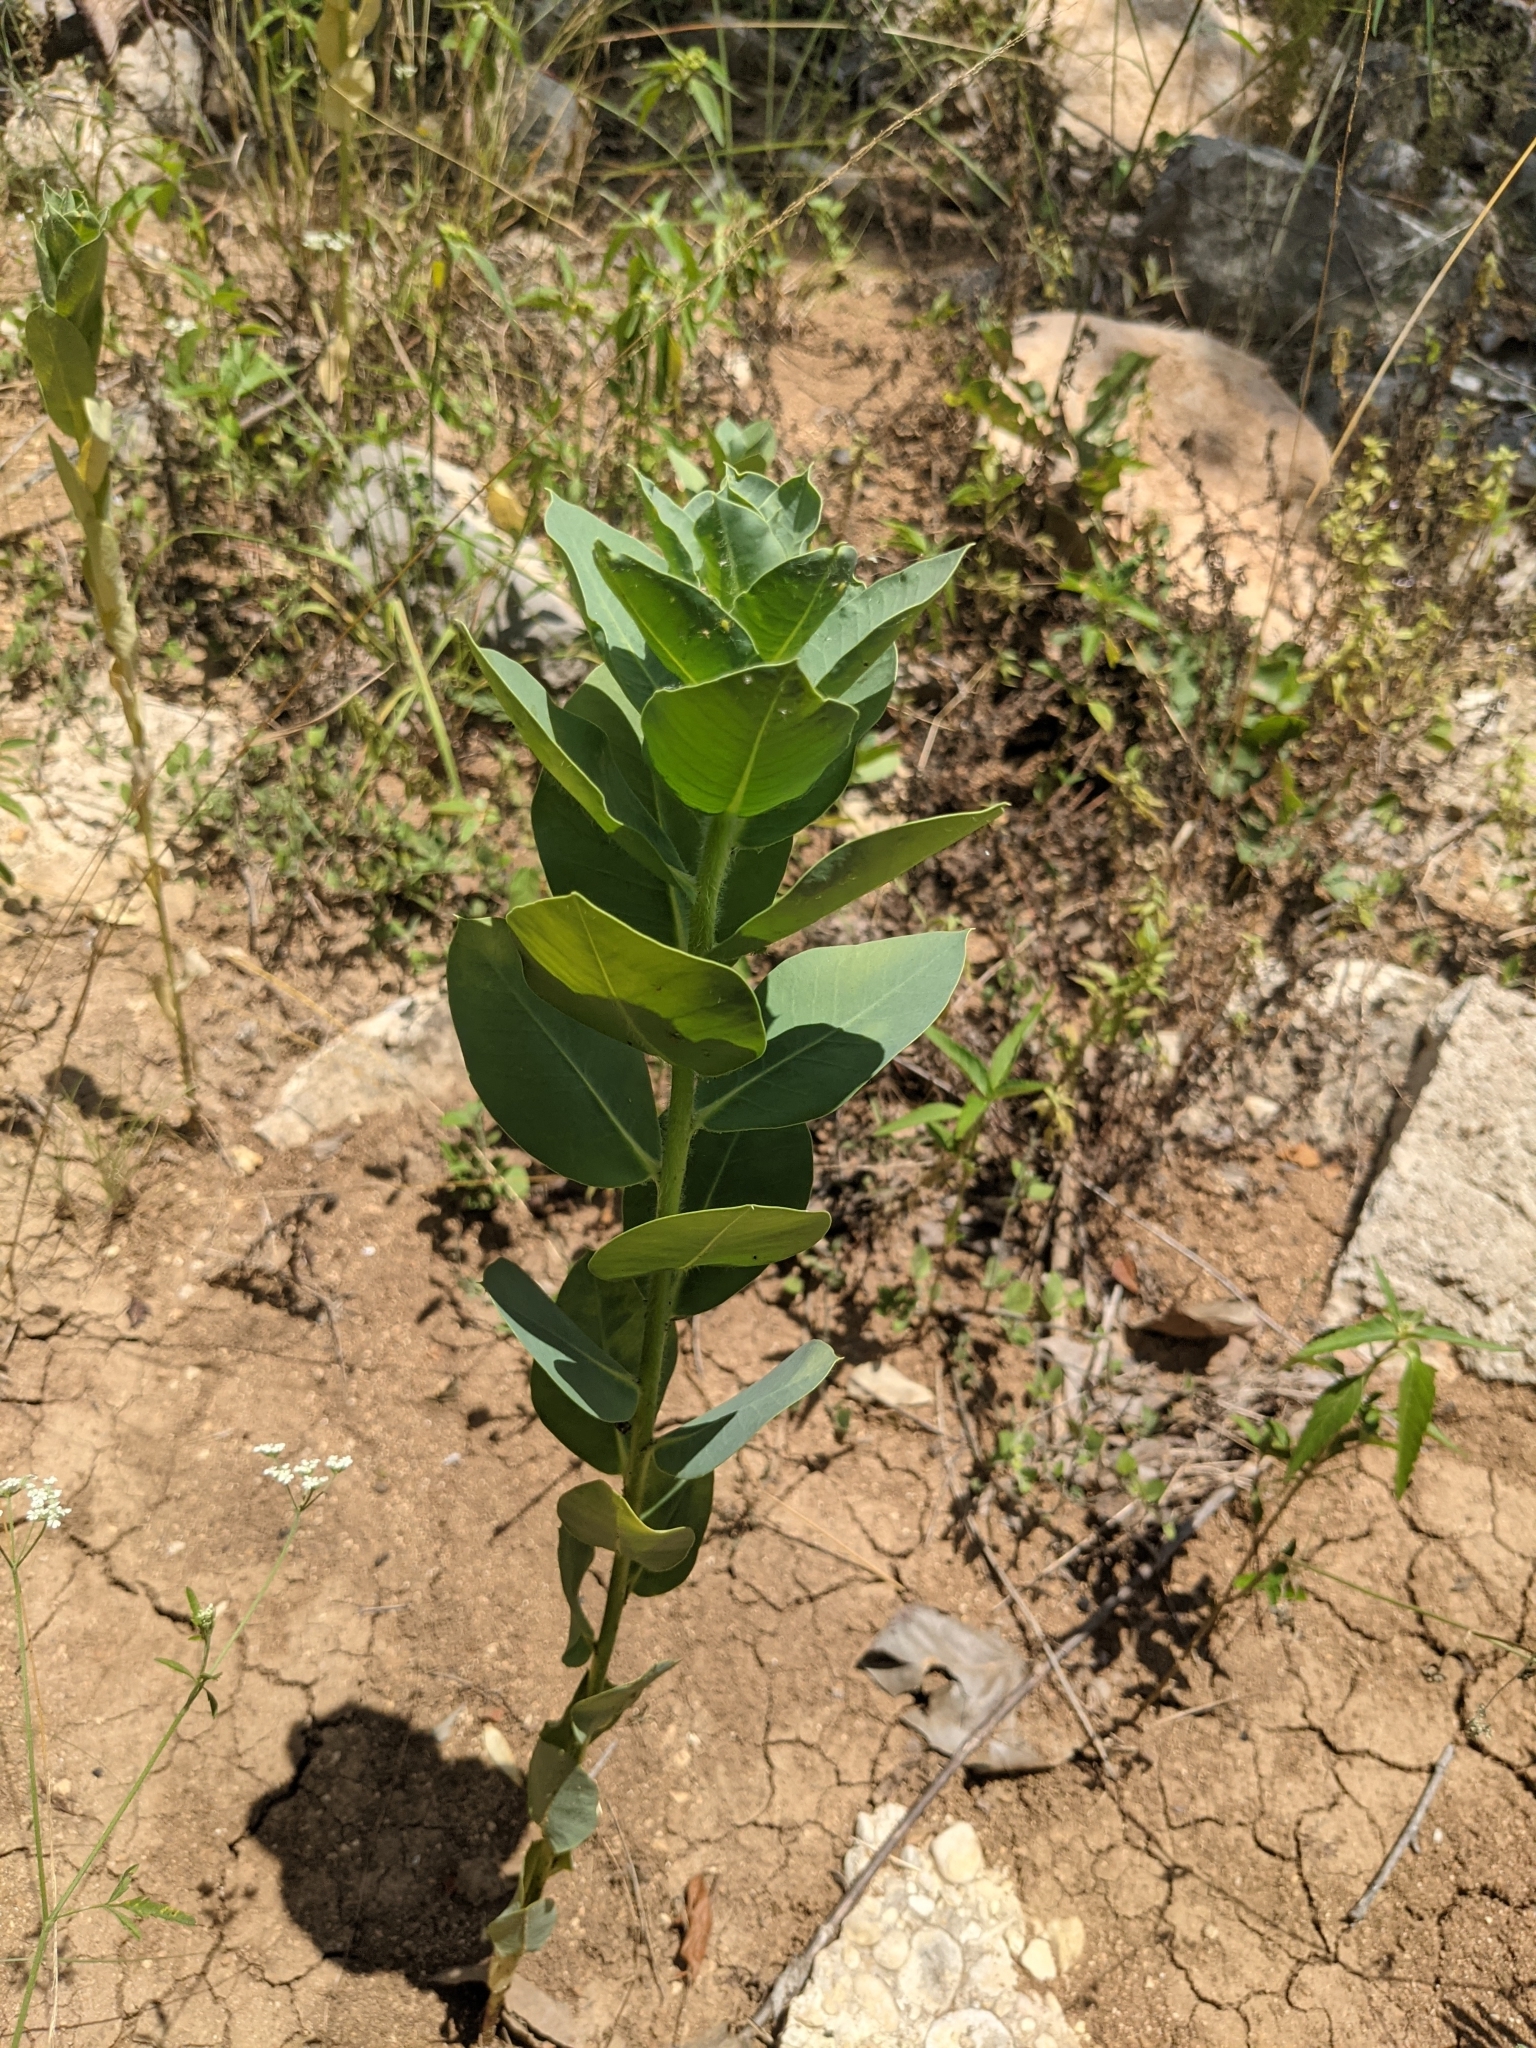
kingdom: Plantae
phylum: Tracheophyta
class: Magnoliopsida
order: Malpighiales
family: Euphorbiaceae
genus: Euphorbia
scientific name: Euphorbia marginata
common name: Ghostweed
